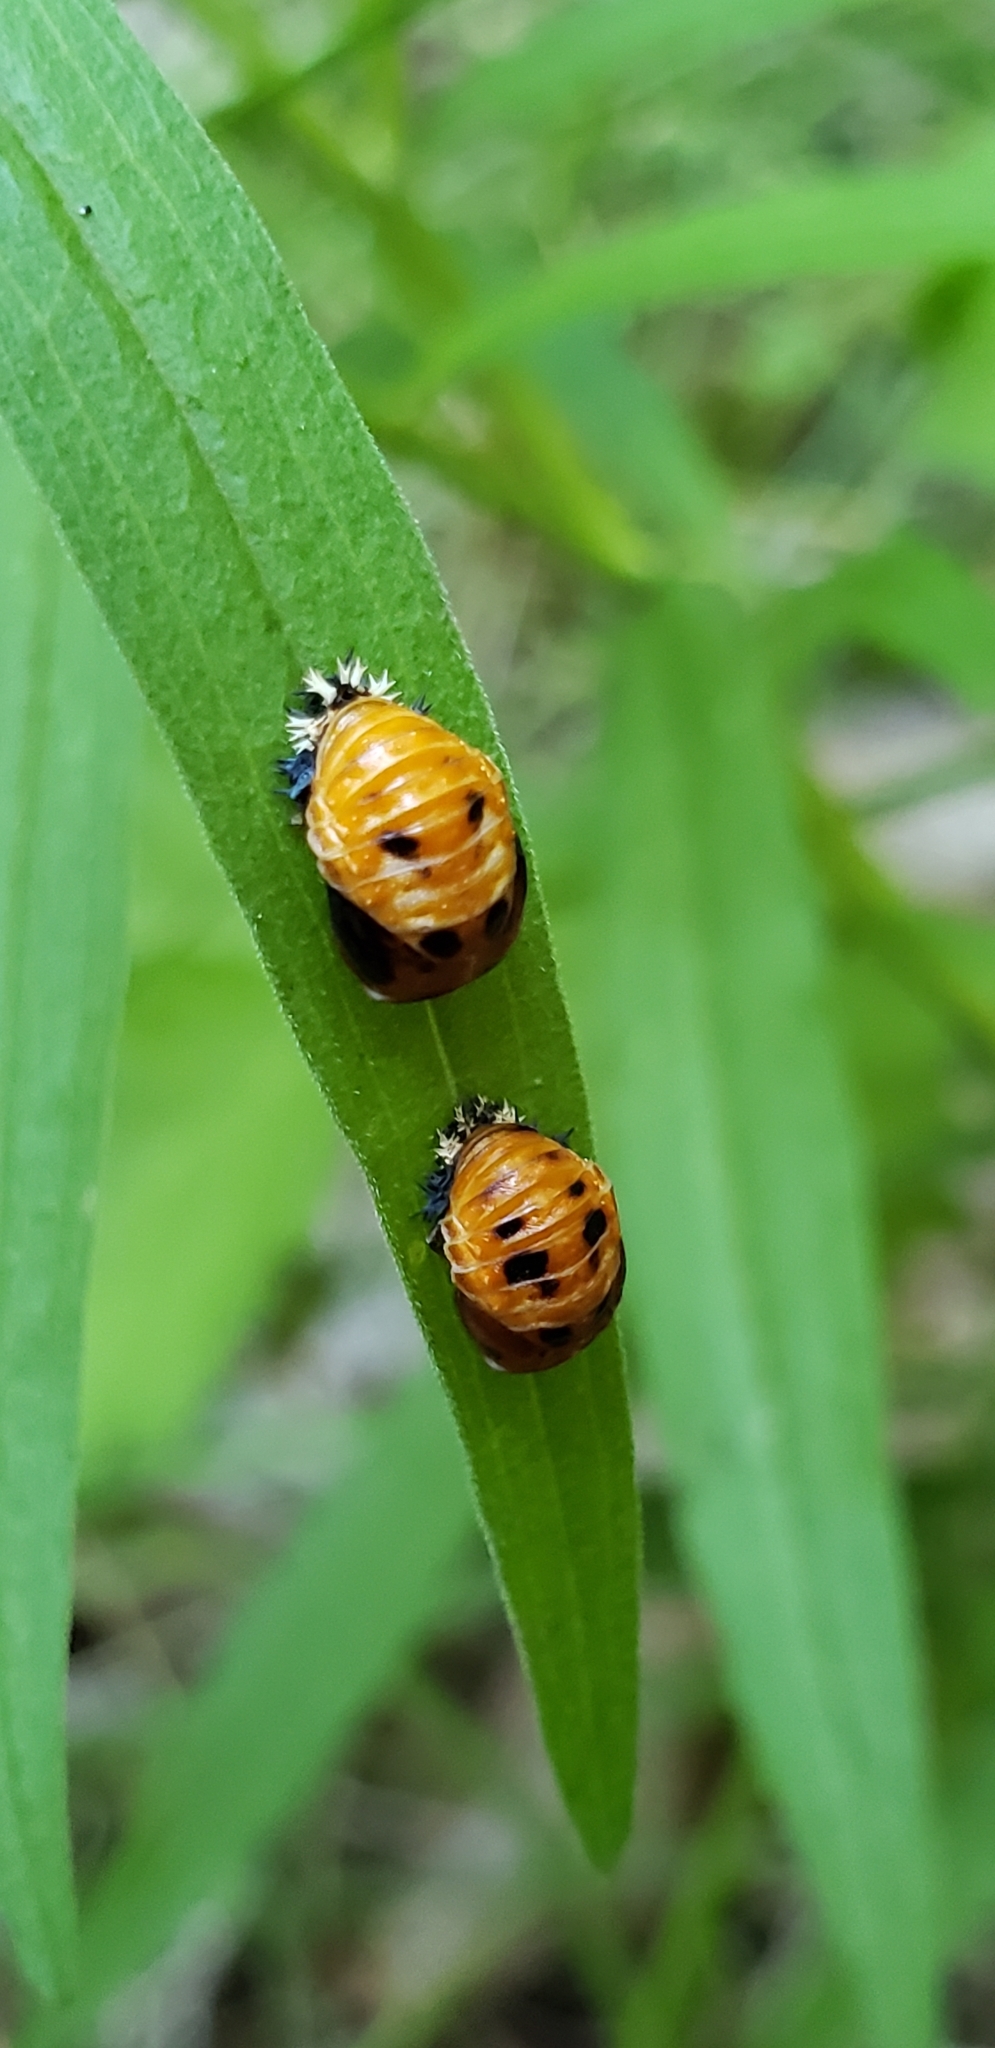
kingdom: Animalia
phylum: Arthropoda
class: Insecta
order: Coleoptera
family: Coccinellidae
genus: Harmonia
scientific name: Harmonia axyridis
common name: Harlequin ladybird
